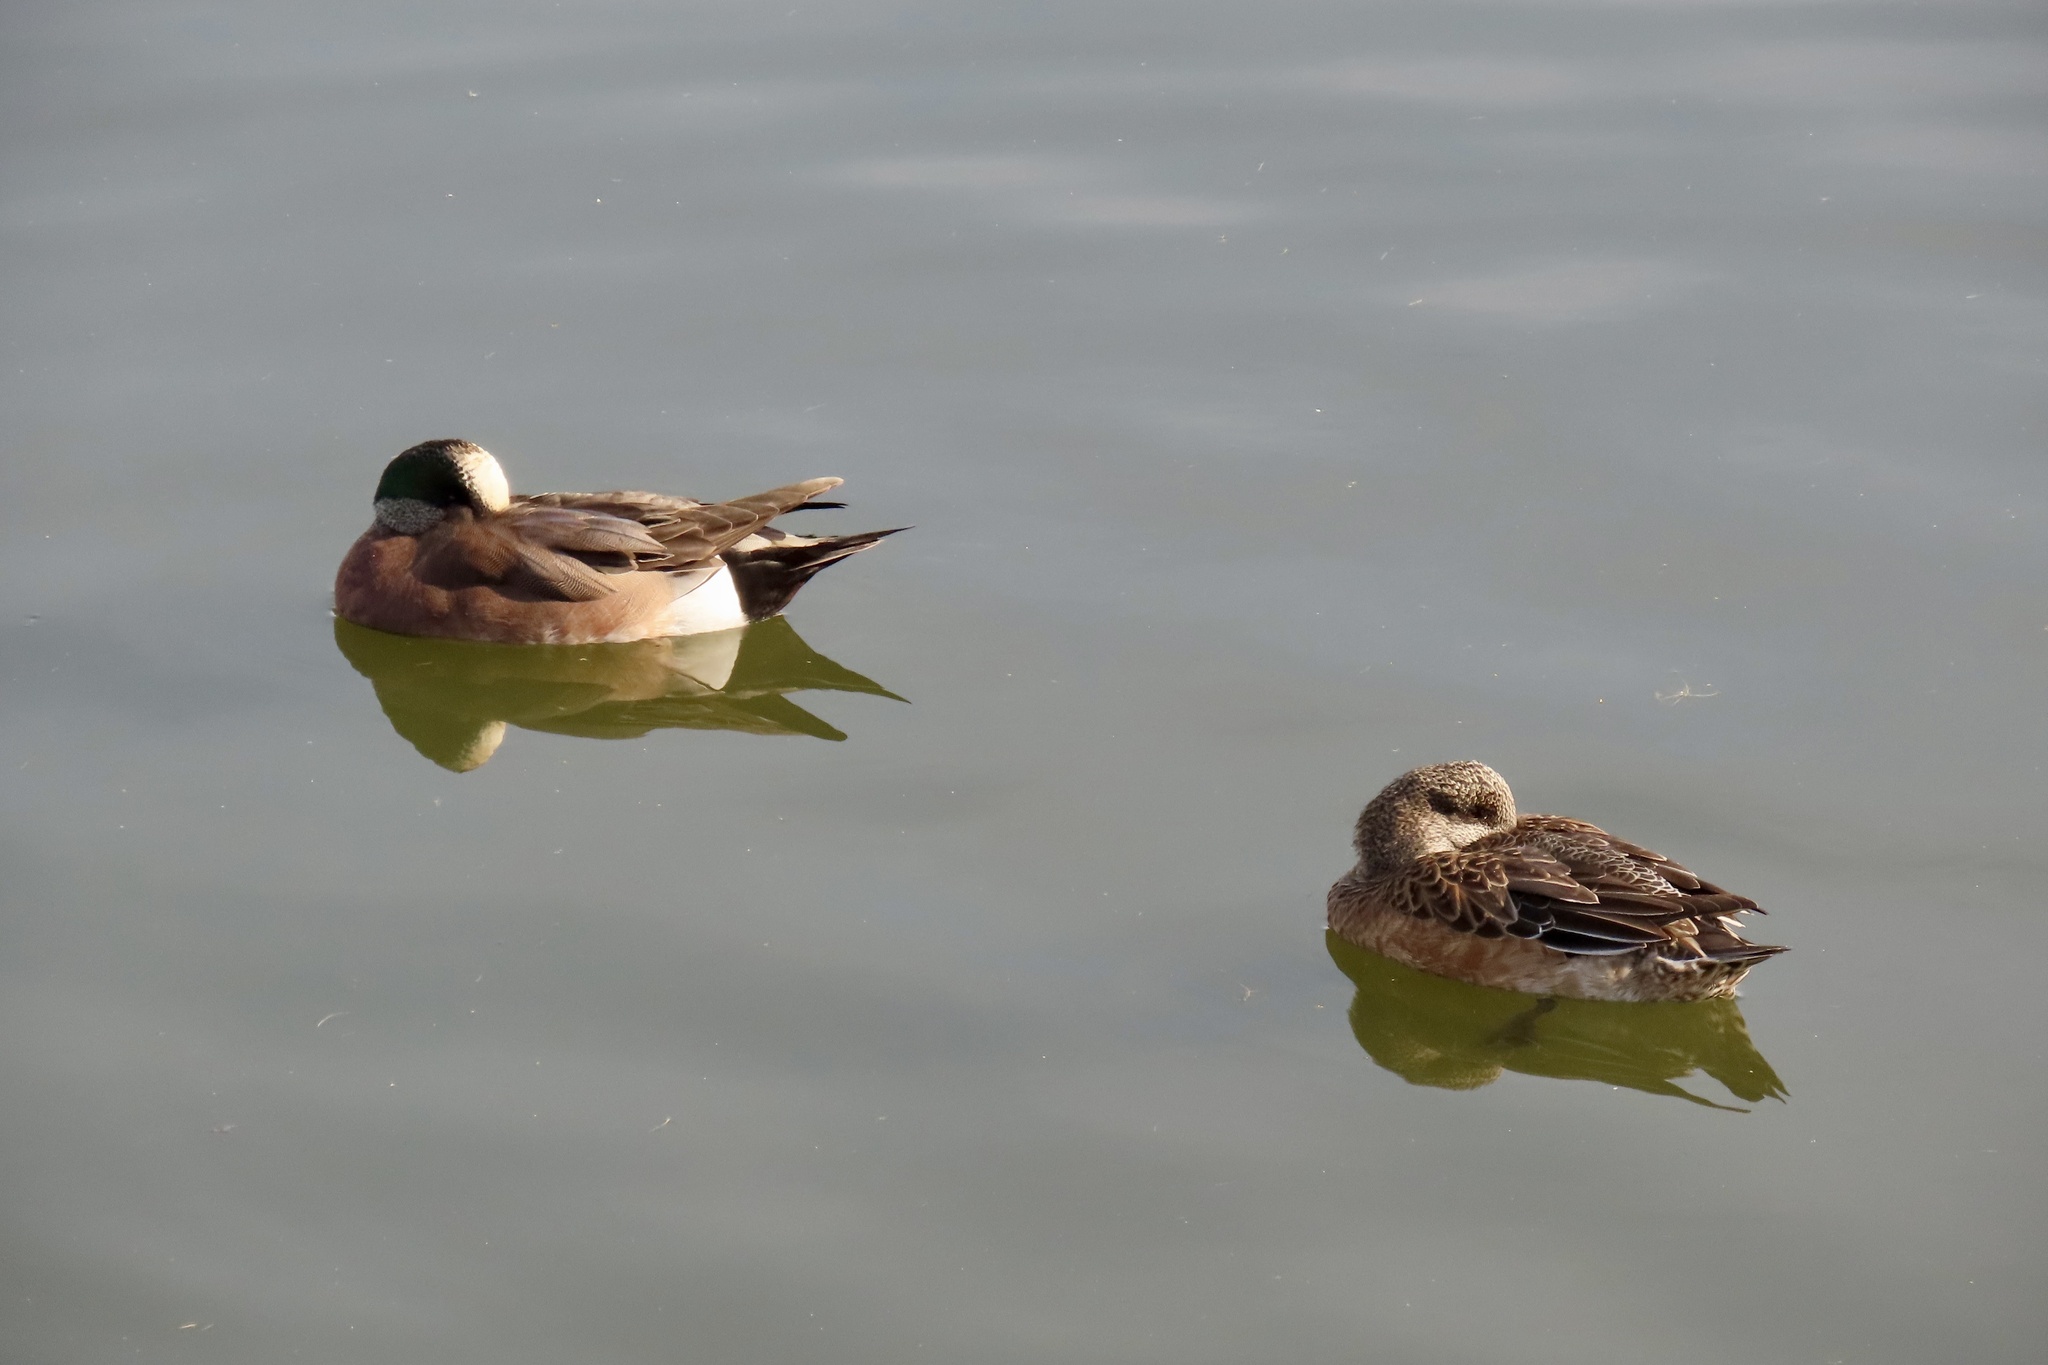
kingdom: Animalia
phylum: Chordata
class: Aves
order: Anseriformes
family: Anatidae
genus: Mareca
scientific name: Mareca americana
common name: American wigeon
